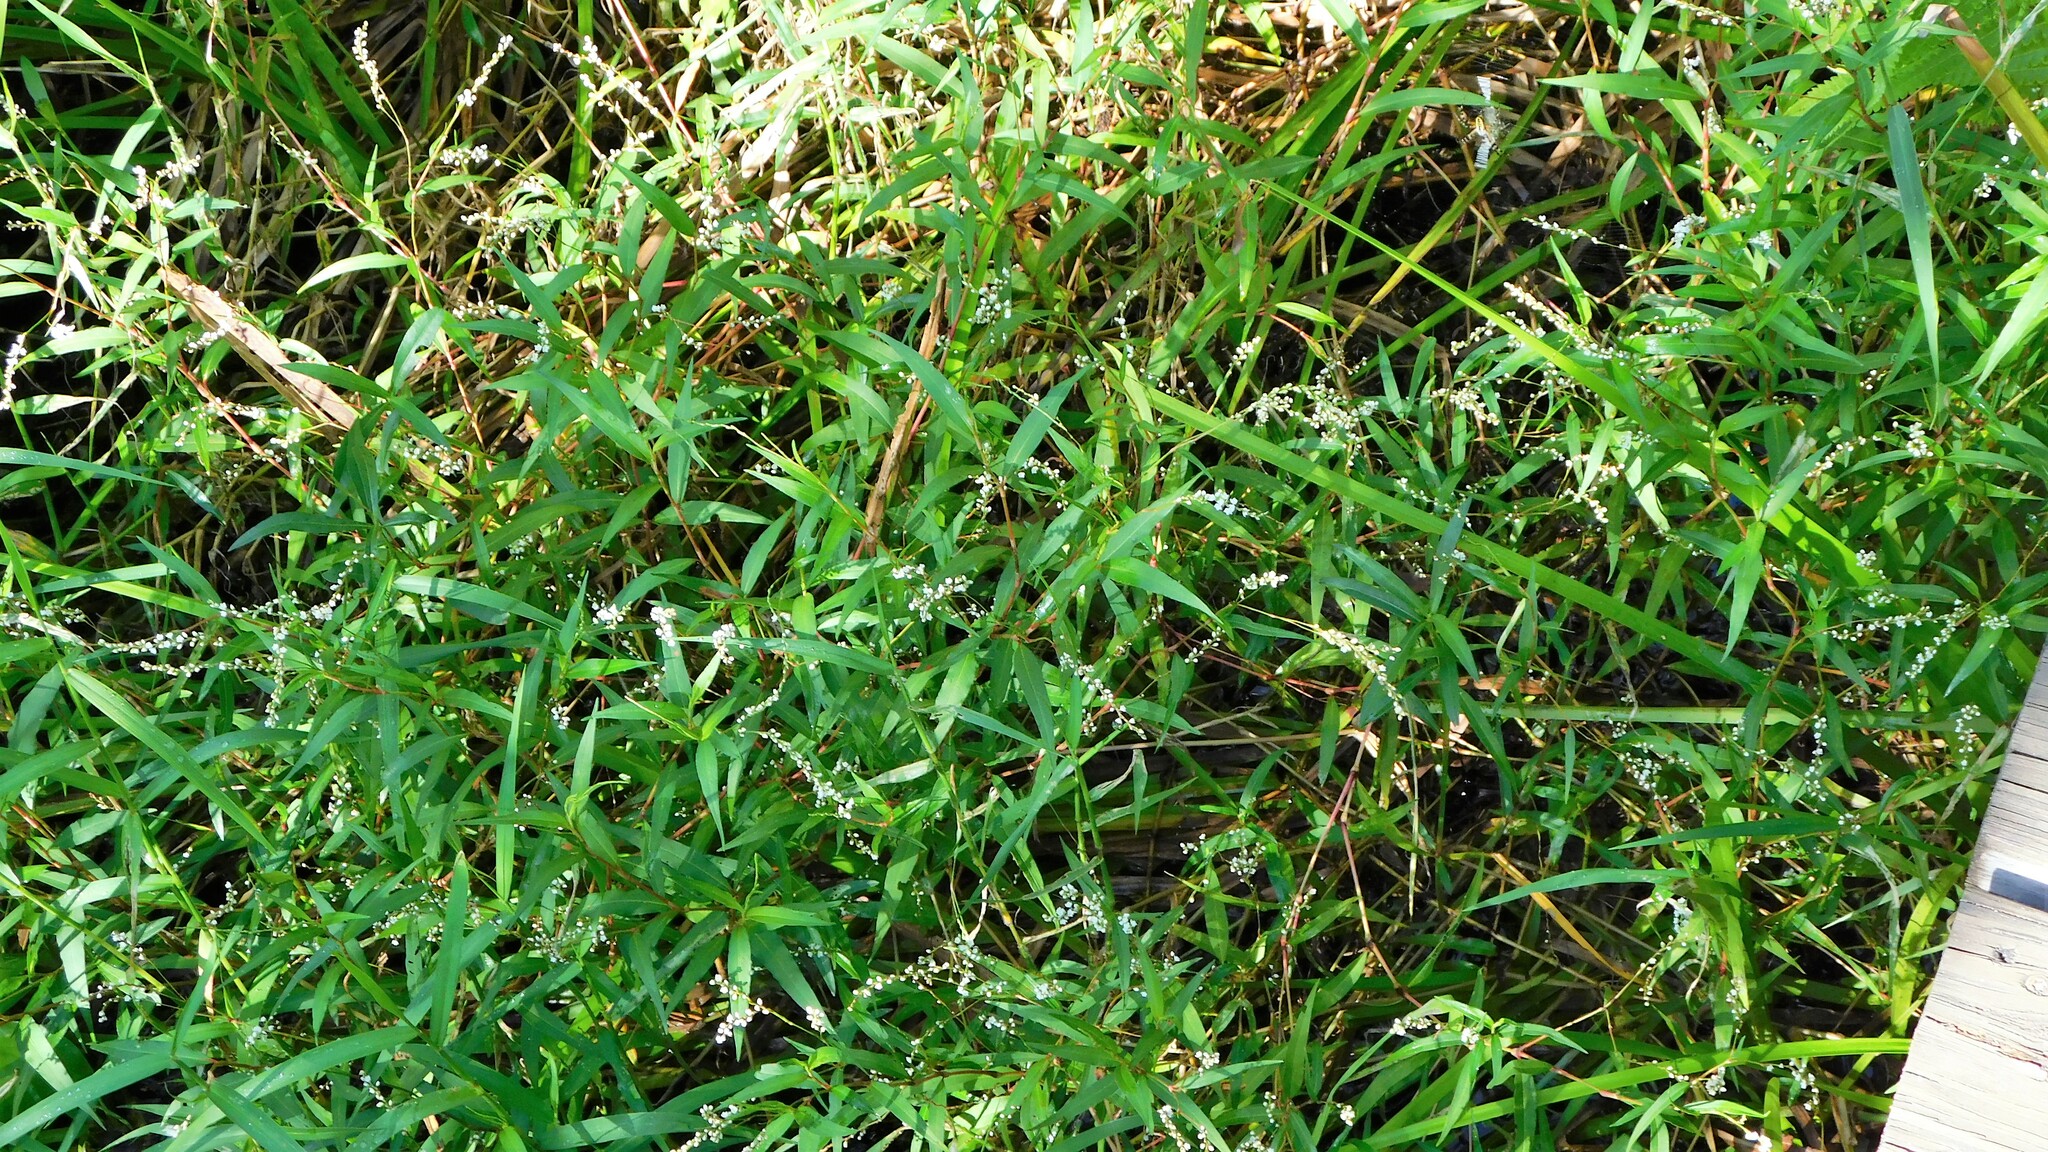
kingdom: Plantae
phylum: Tracheophyta
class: Magnoliopsida
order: Caryophyllales
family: Polygonaceae
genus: Persicaria
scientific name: Persicaria hydropiperoides
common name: Swamp smartweed
